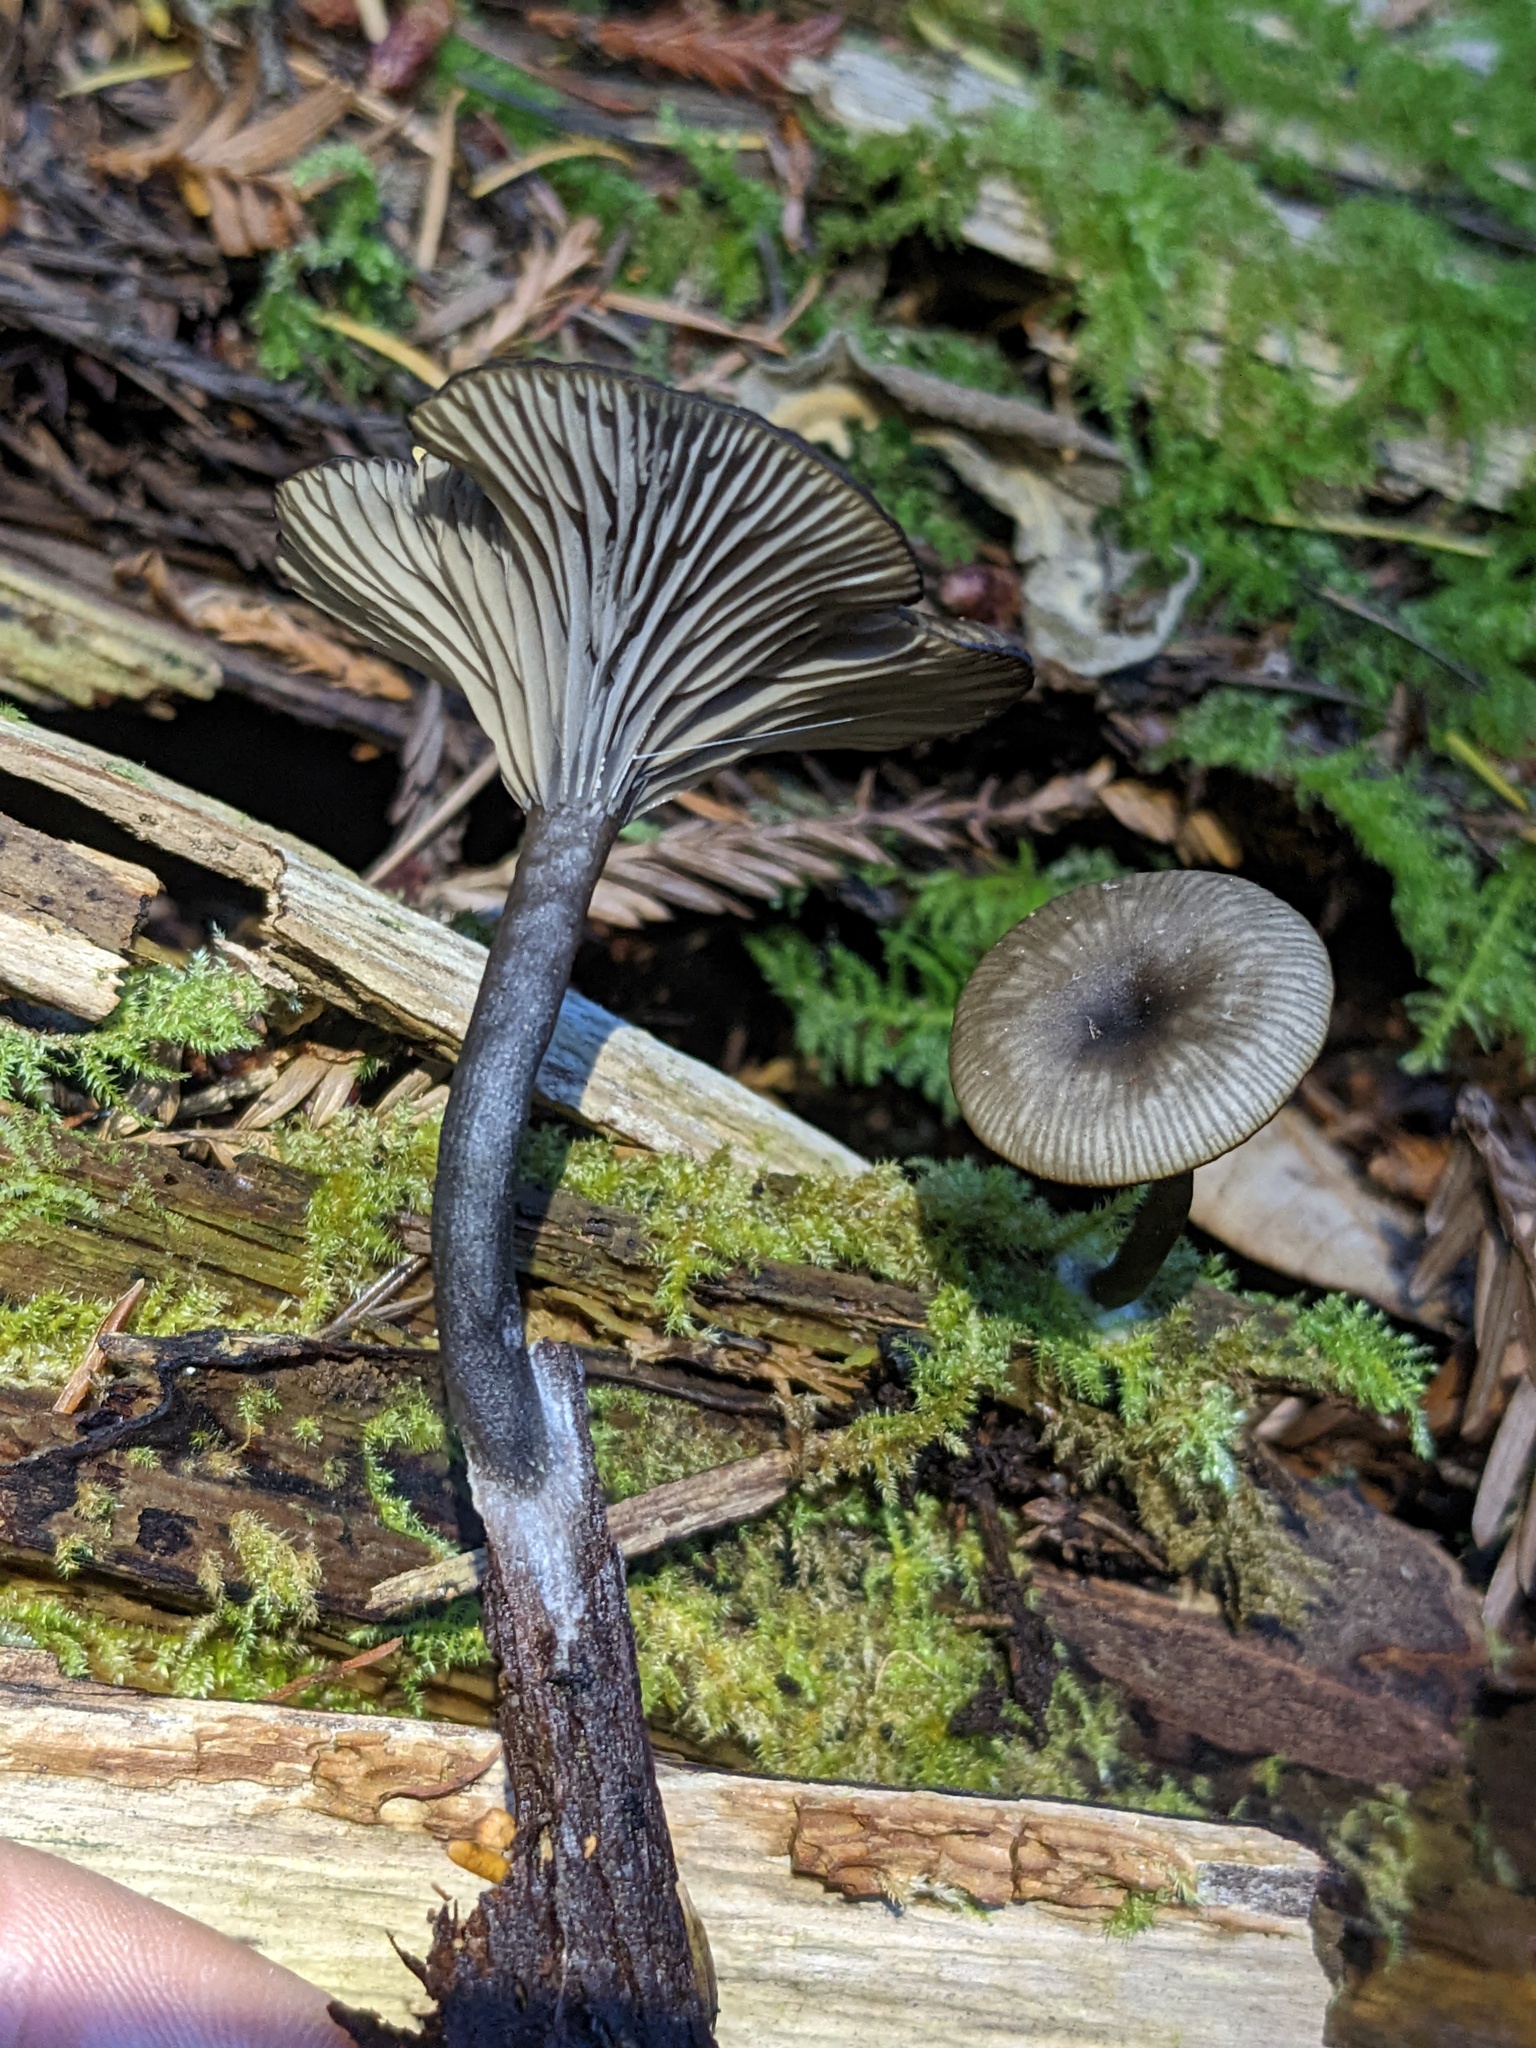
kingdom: Fungi
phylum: Basidiomycota
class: Agaricomycetes
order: Agaricales
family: Hygrophoraceae
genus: Arrhenia
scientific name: Arrhenia epichysium
